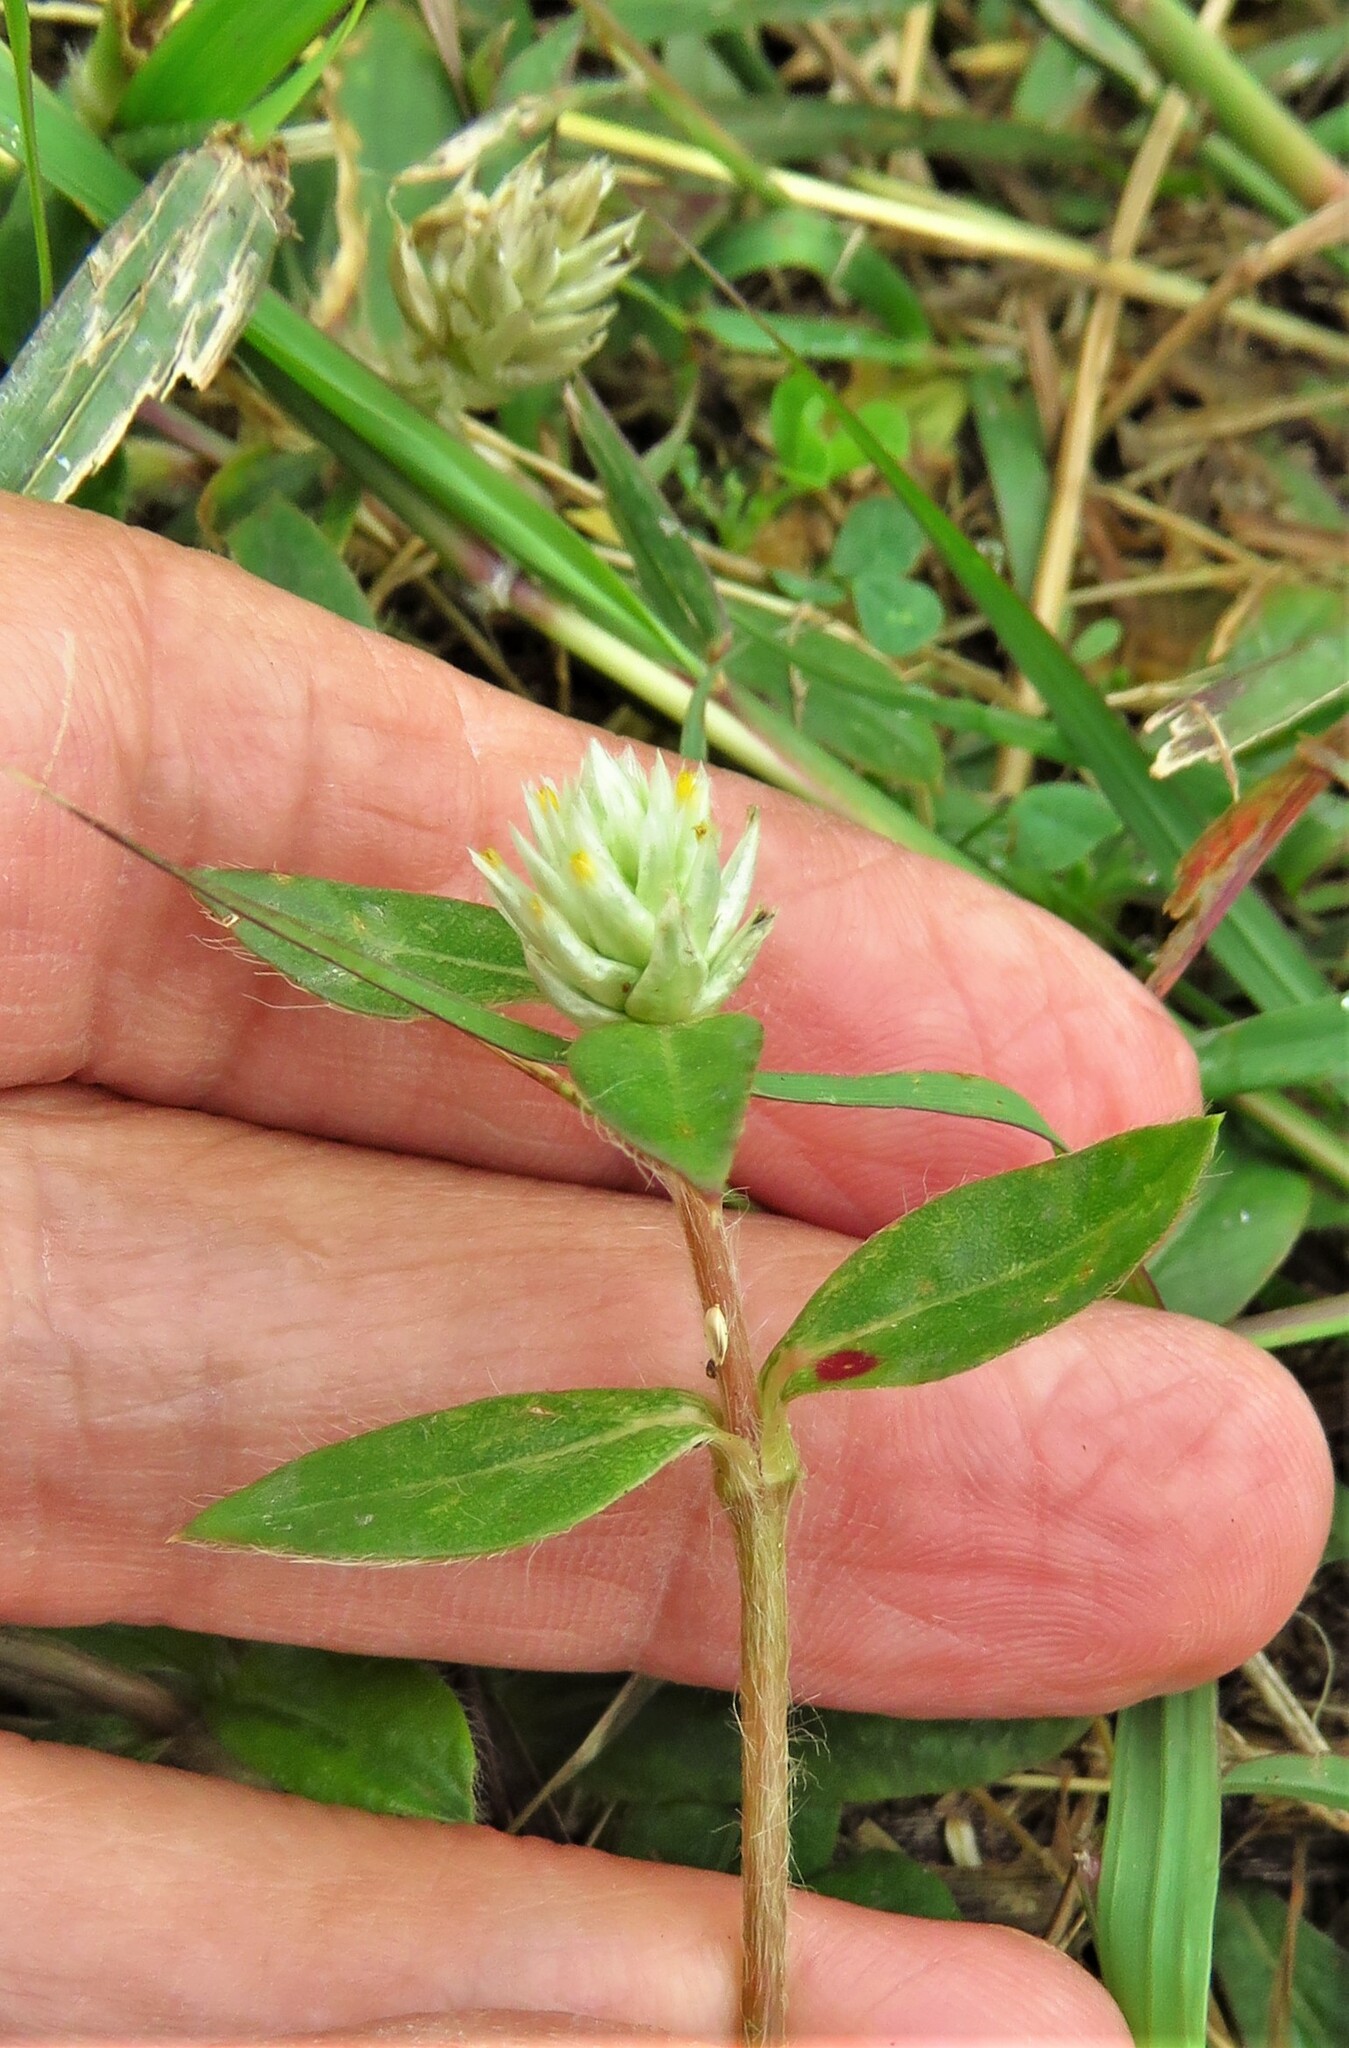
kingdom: Plantae
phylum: Tracheophyta
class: Magnoliopsida
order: Caryophyllales
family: Amaranthaceae
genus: Gomphrena
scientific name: Gomphrena serrata
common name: Arrasa con todo
